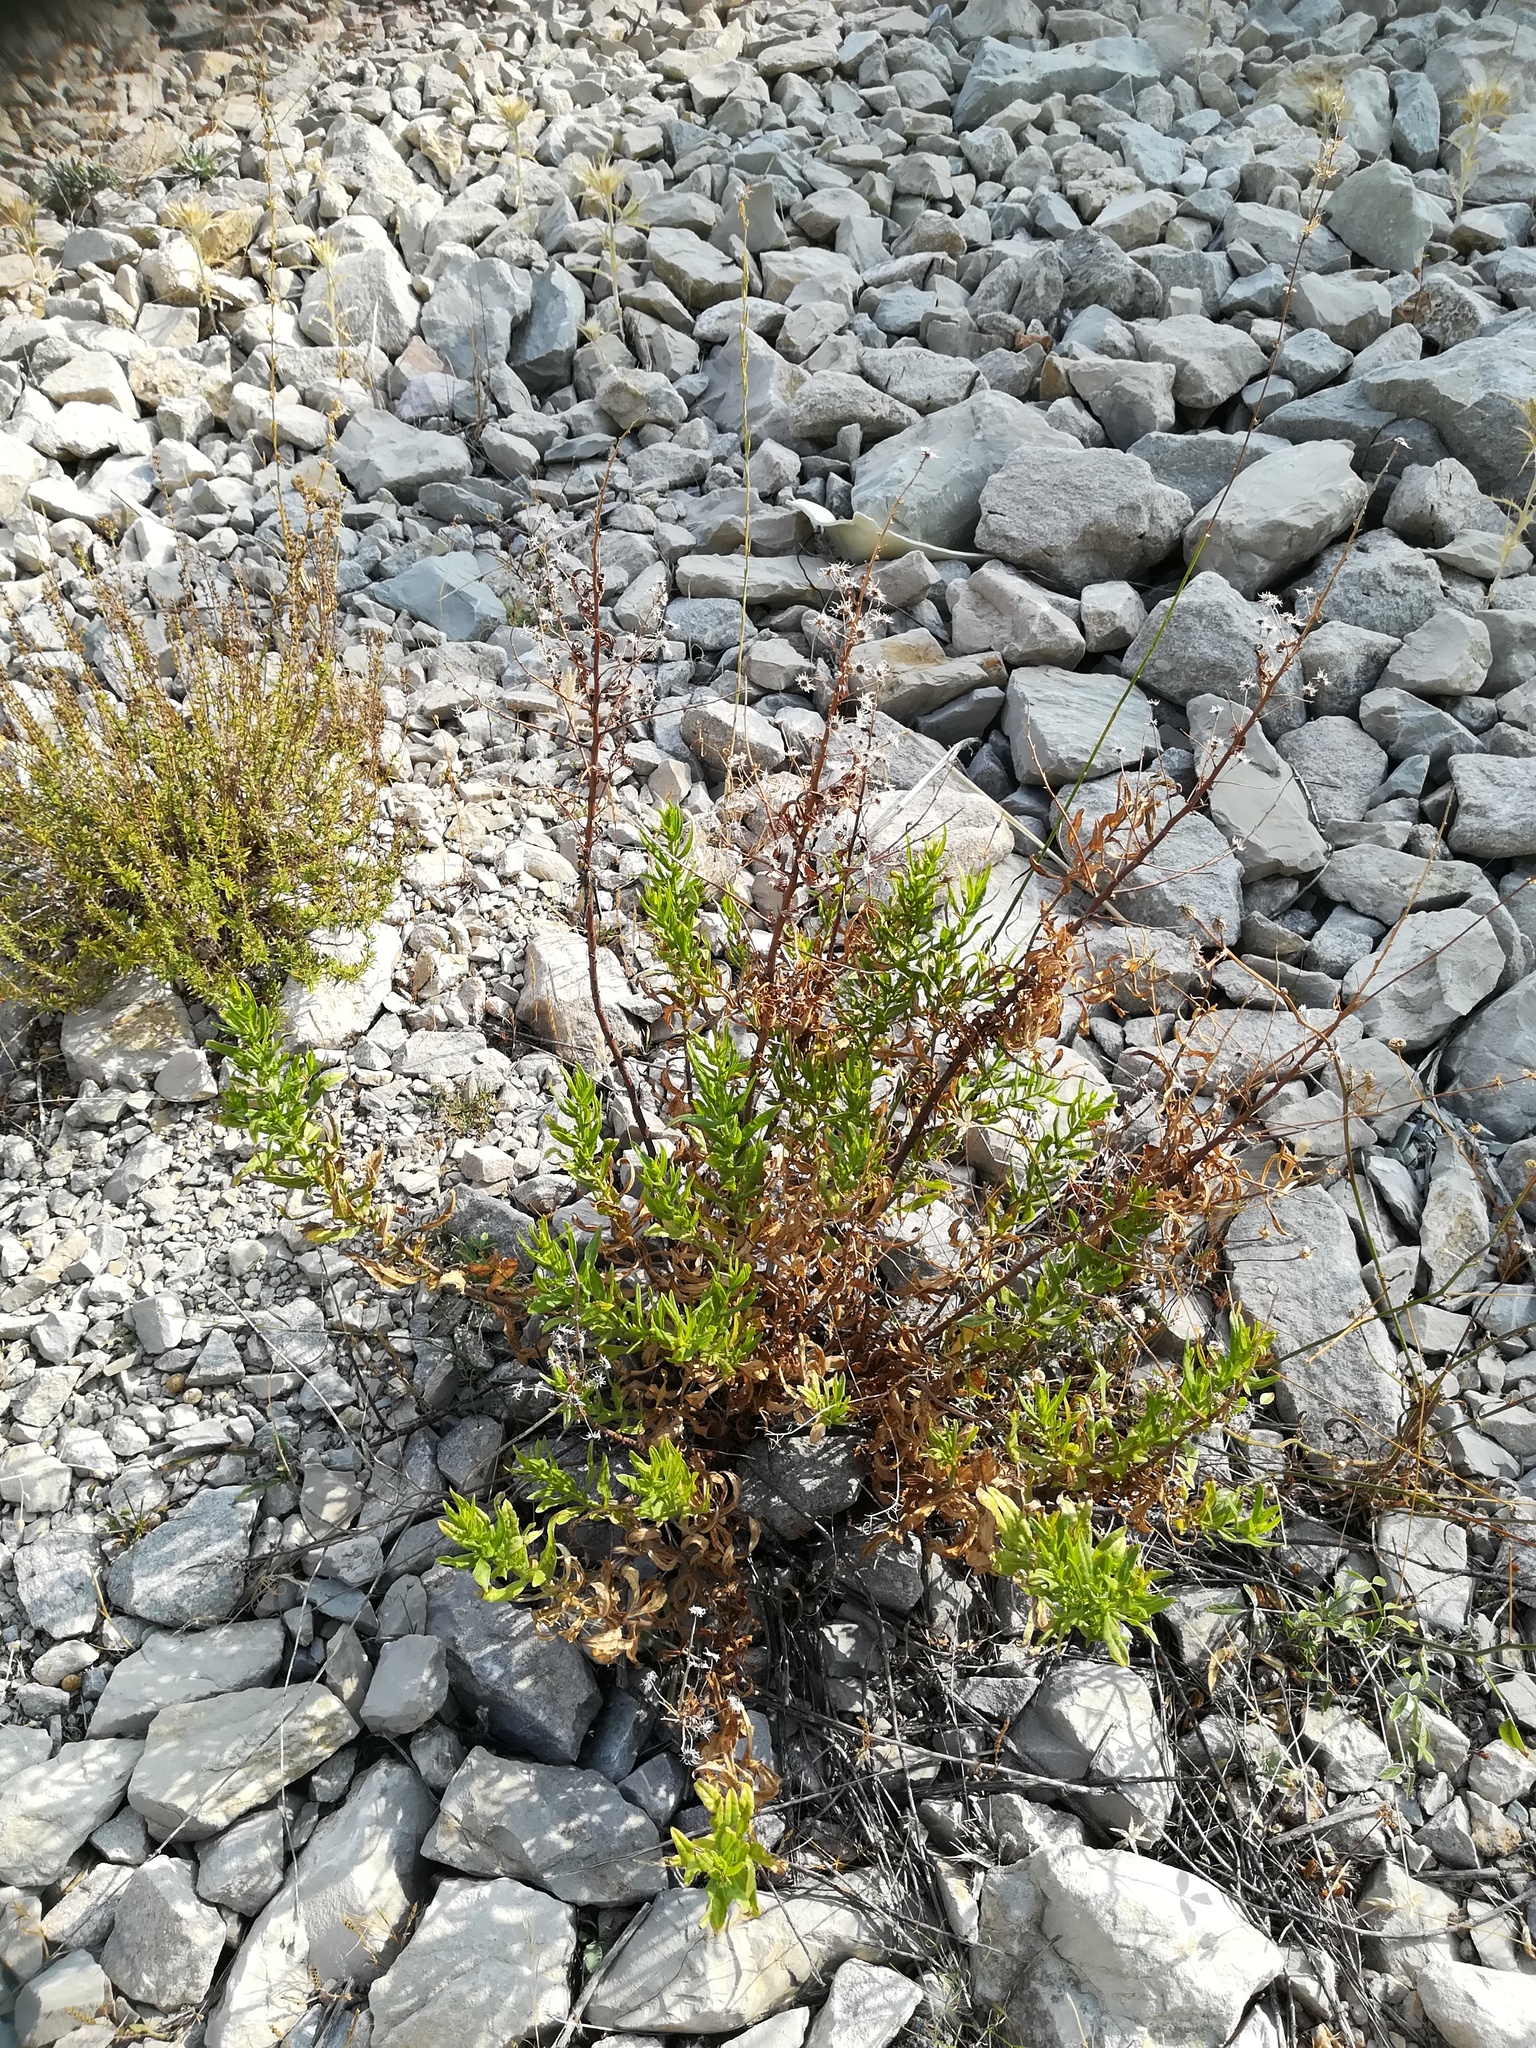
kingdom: Plantae
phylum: Tracheophyta
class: Magnoliopsida
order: Asterales
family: Asteraceae
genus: Dittrichia
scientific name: Dittrichia viscosa
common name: Woody fleabane
